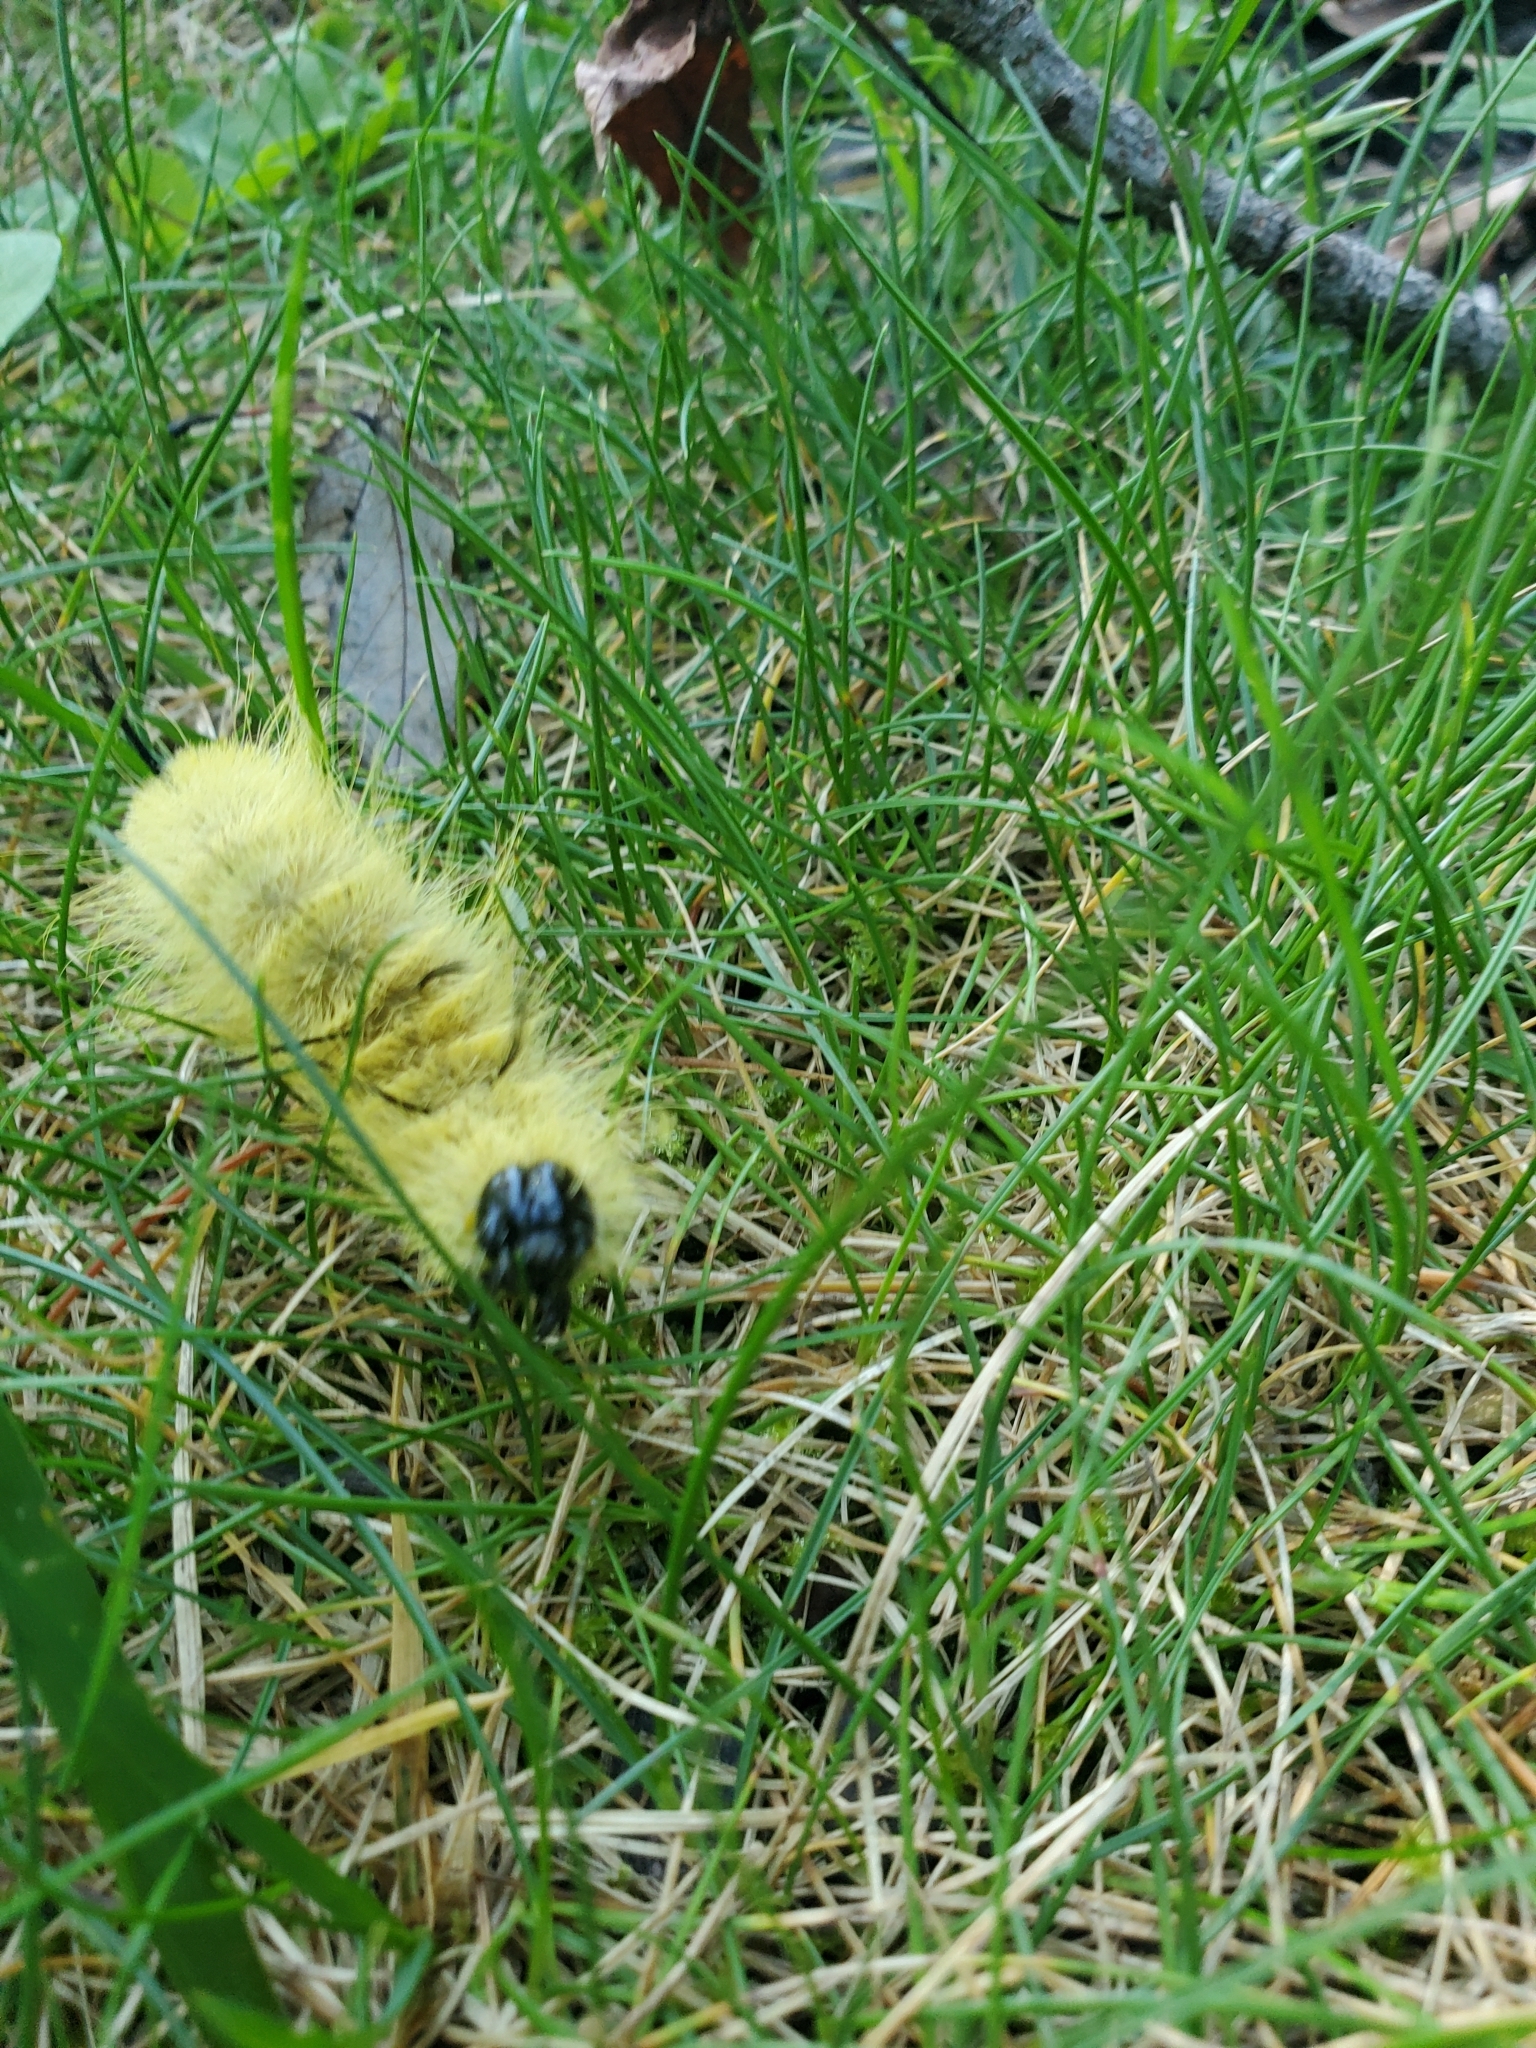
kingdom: Animalia
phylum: Arthropoda
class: Insecta
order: Lepidoptera
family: Noctuidae
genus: Acronicta
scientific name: Acronicta americana
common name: American dagger
